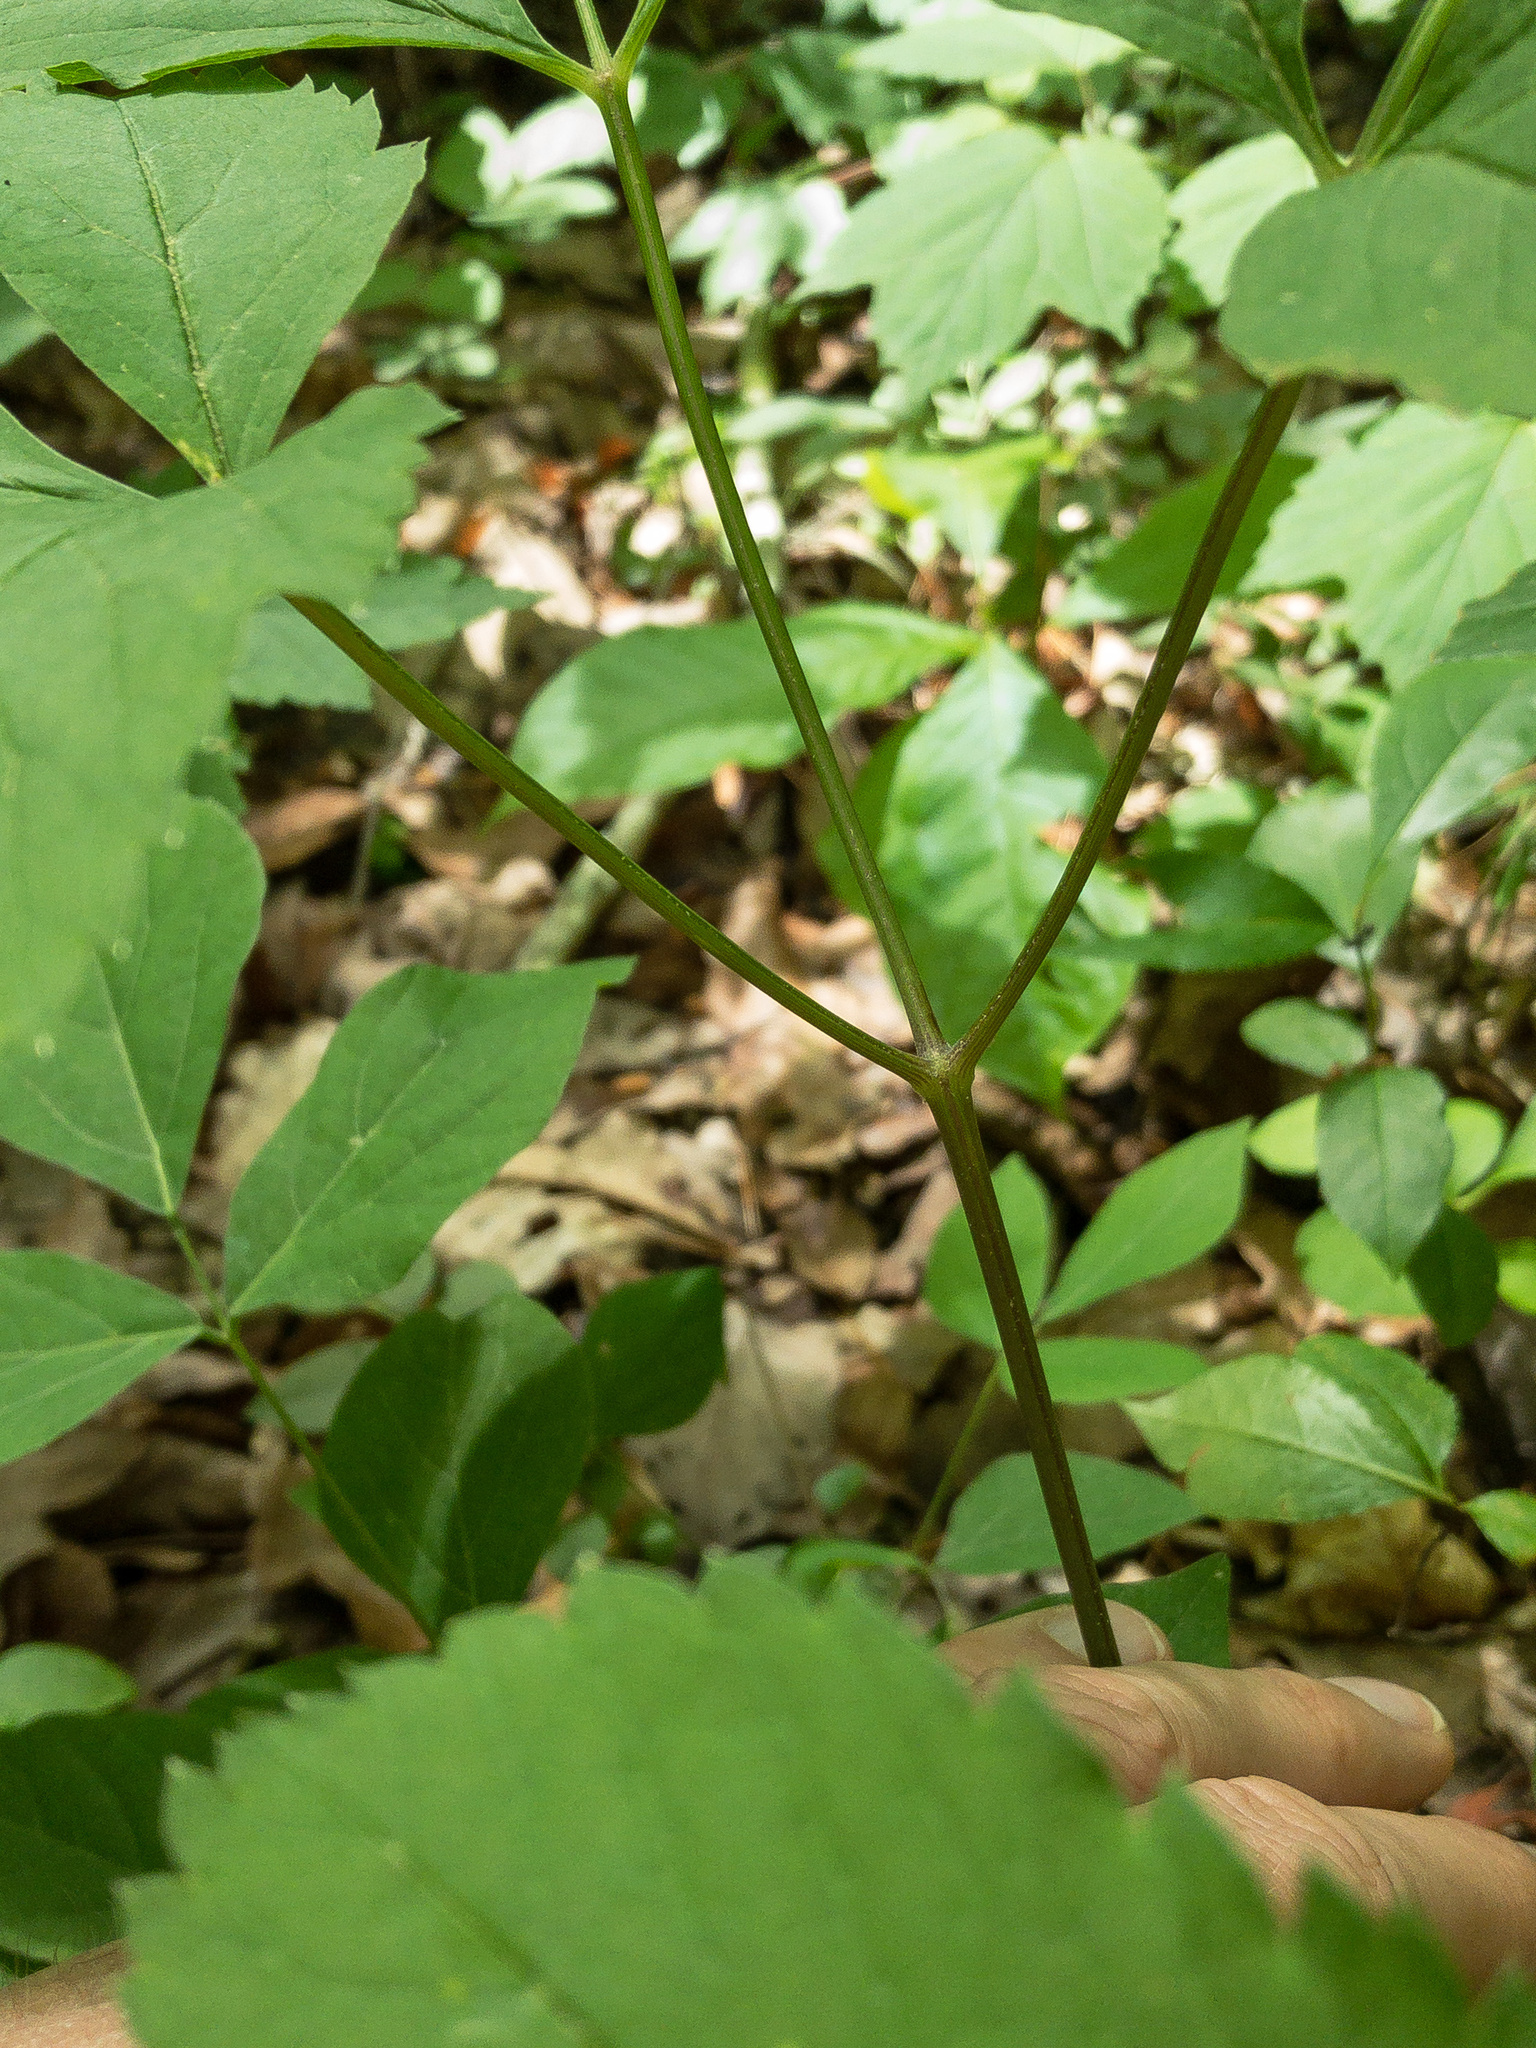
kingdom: Plantae
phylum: Tracheophyta
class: Magnoliopsida
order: Apiales
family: Apiaceae
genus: Ligusticum
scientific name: Ligusticum canadense
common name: American lovage
